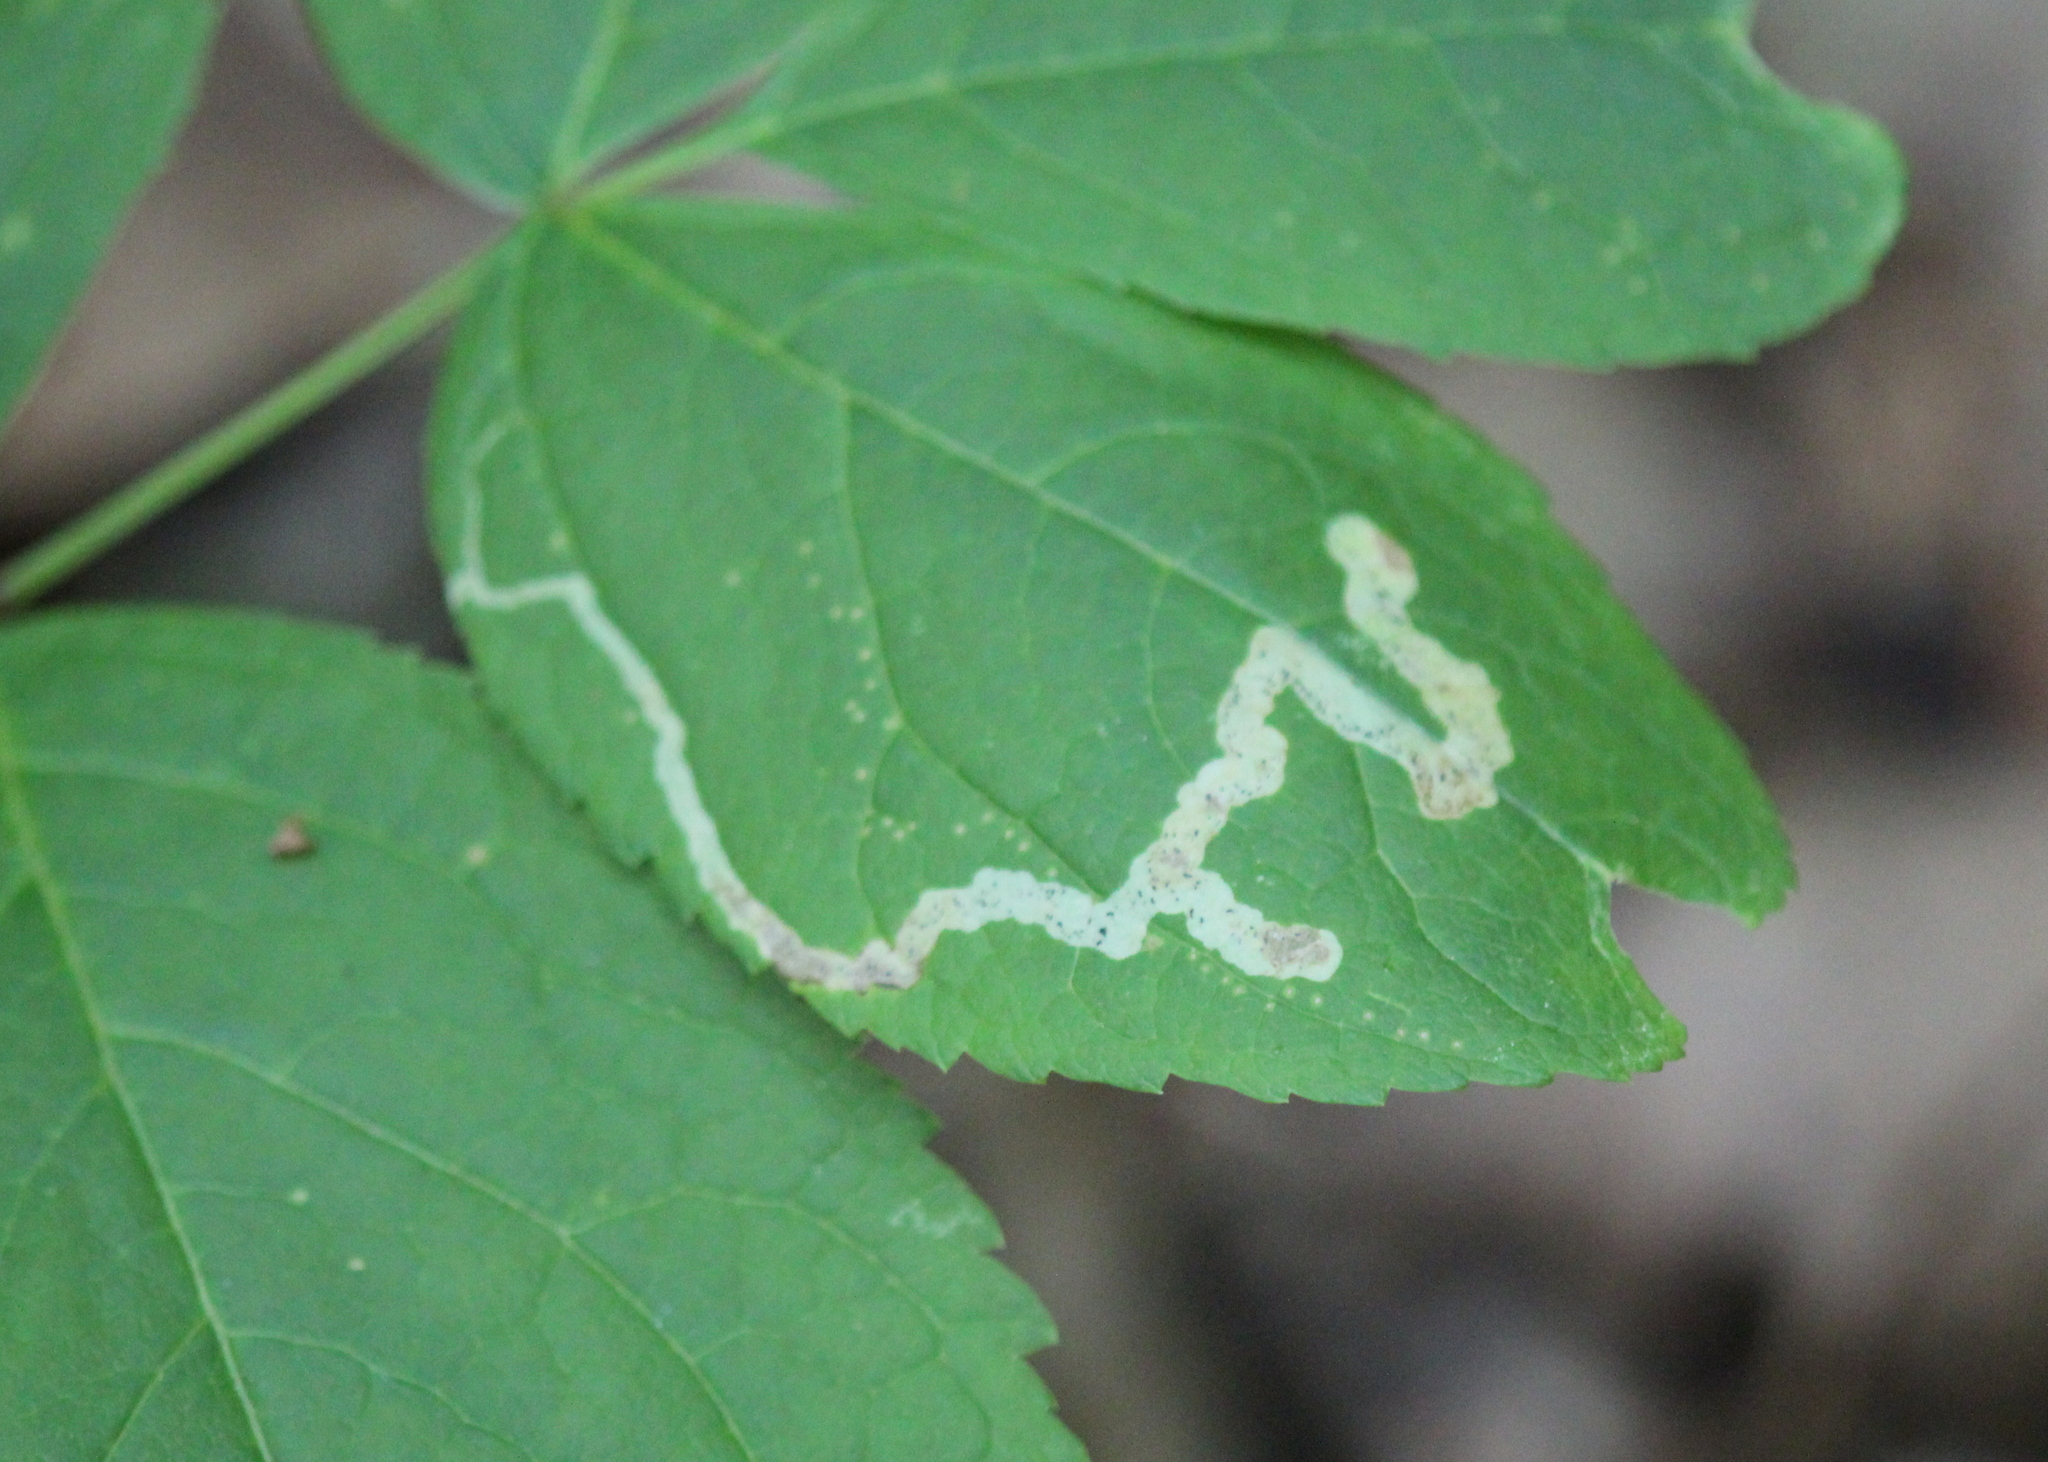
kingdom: Animalia
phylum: Arthropoda
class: Insecta
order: Diptera
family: Agromyzidae
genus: Phytomyza
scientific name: Phytomyza aralivora
